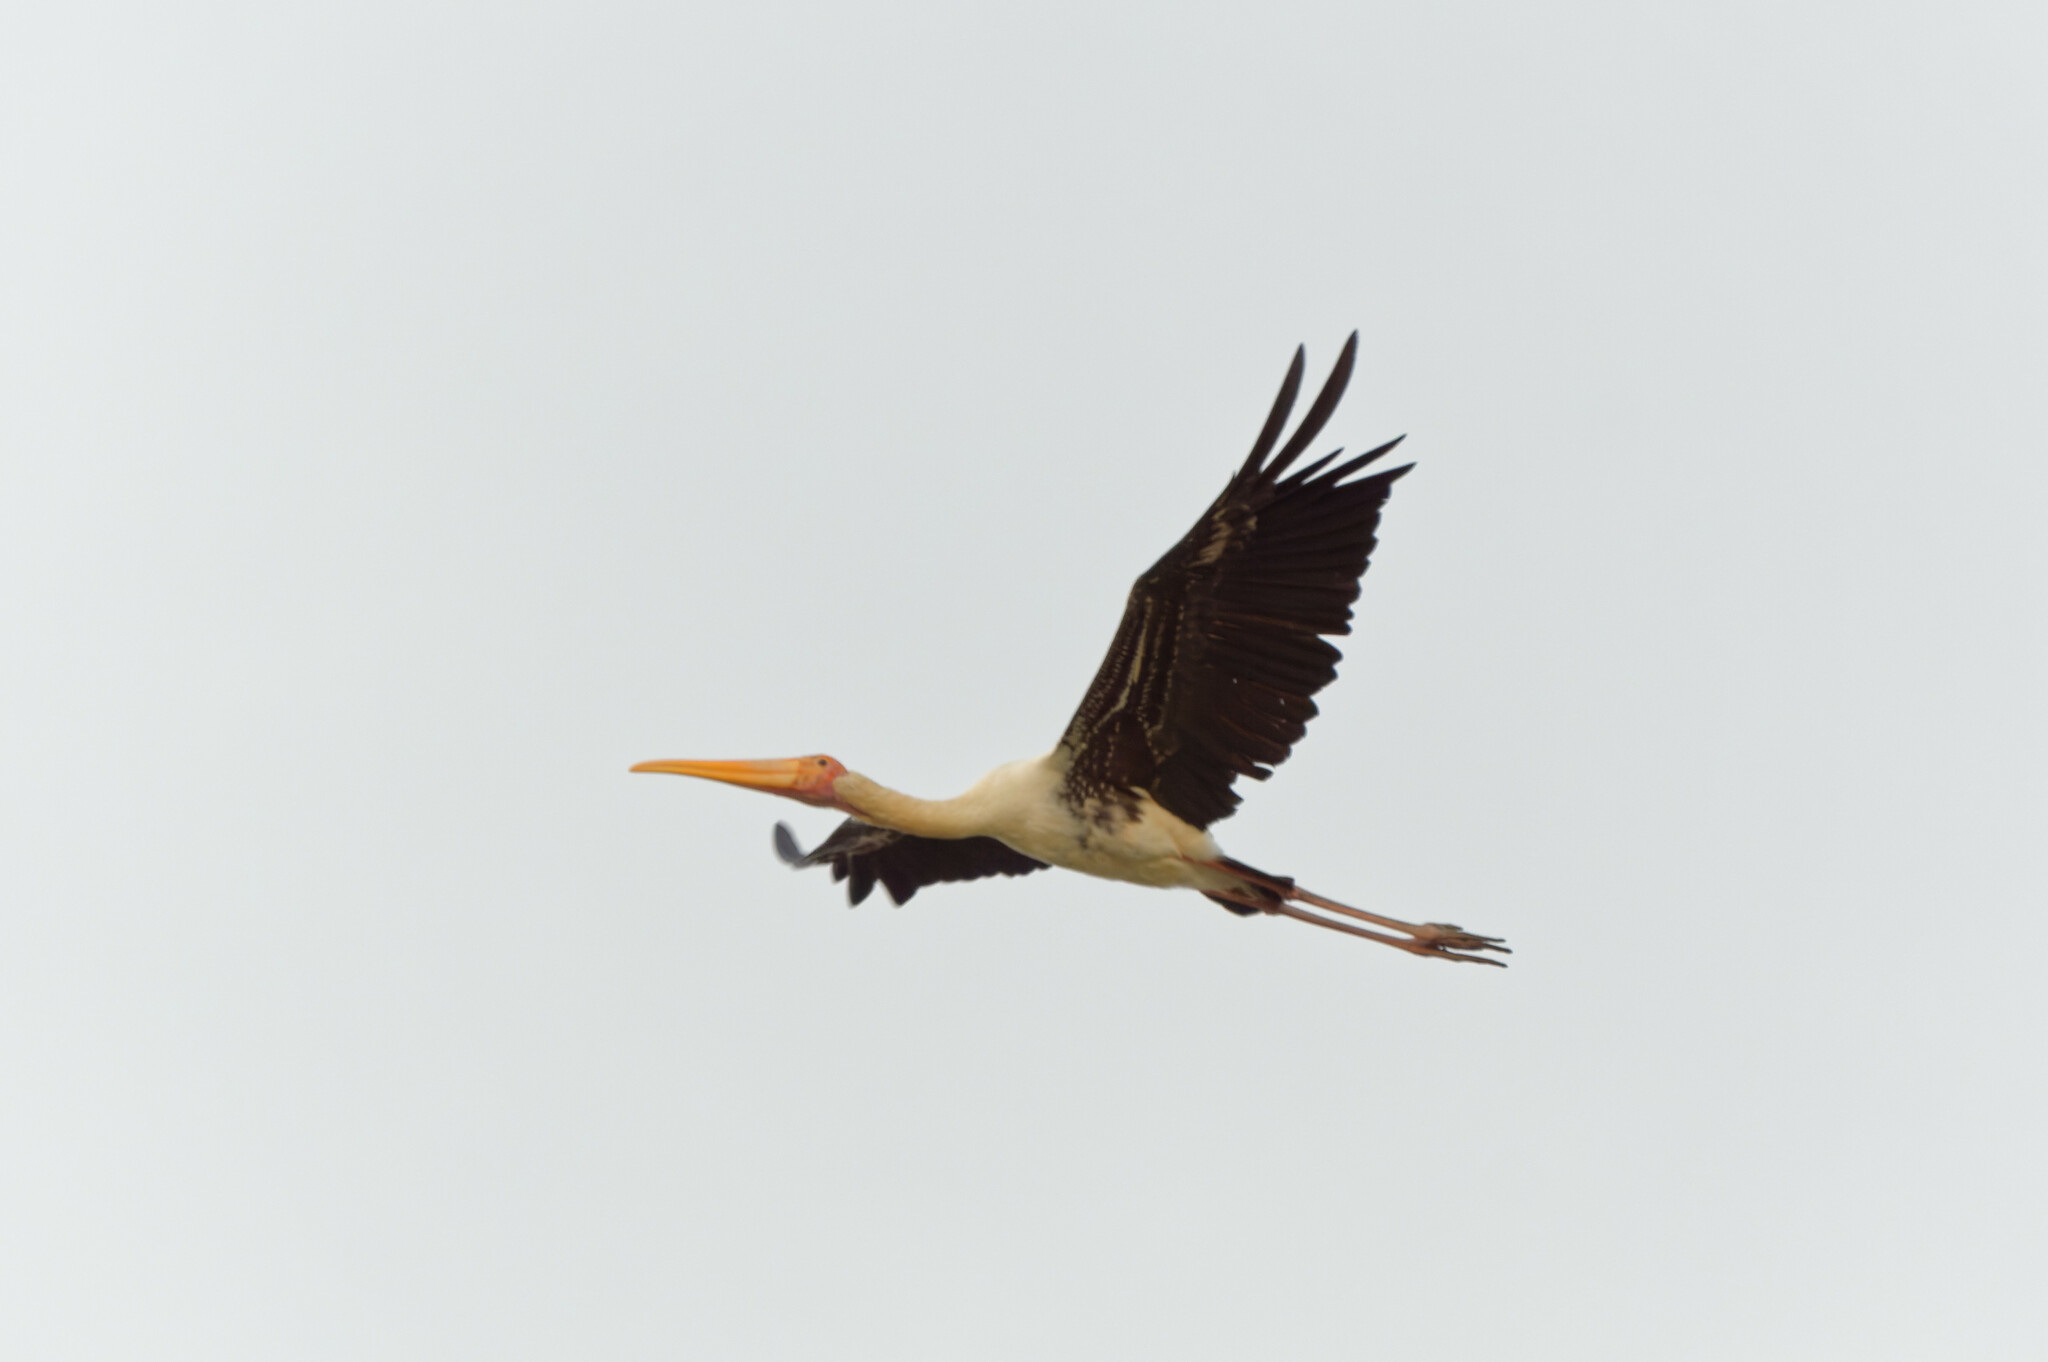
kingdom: Animalia
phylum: Chordata
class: Aves
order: Ciconiiformes
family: Ciconiidae
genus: Mycteria
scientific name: Mycteria leucocephala
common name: Painted stork
